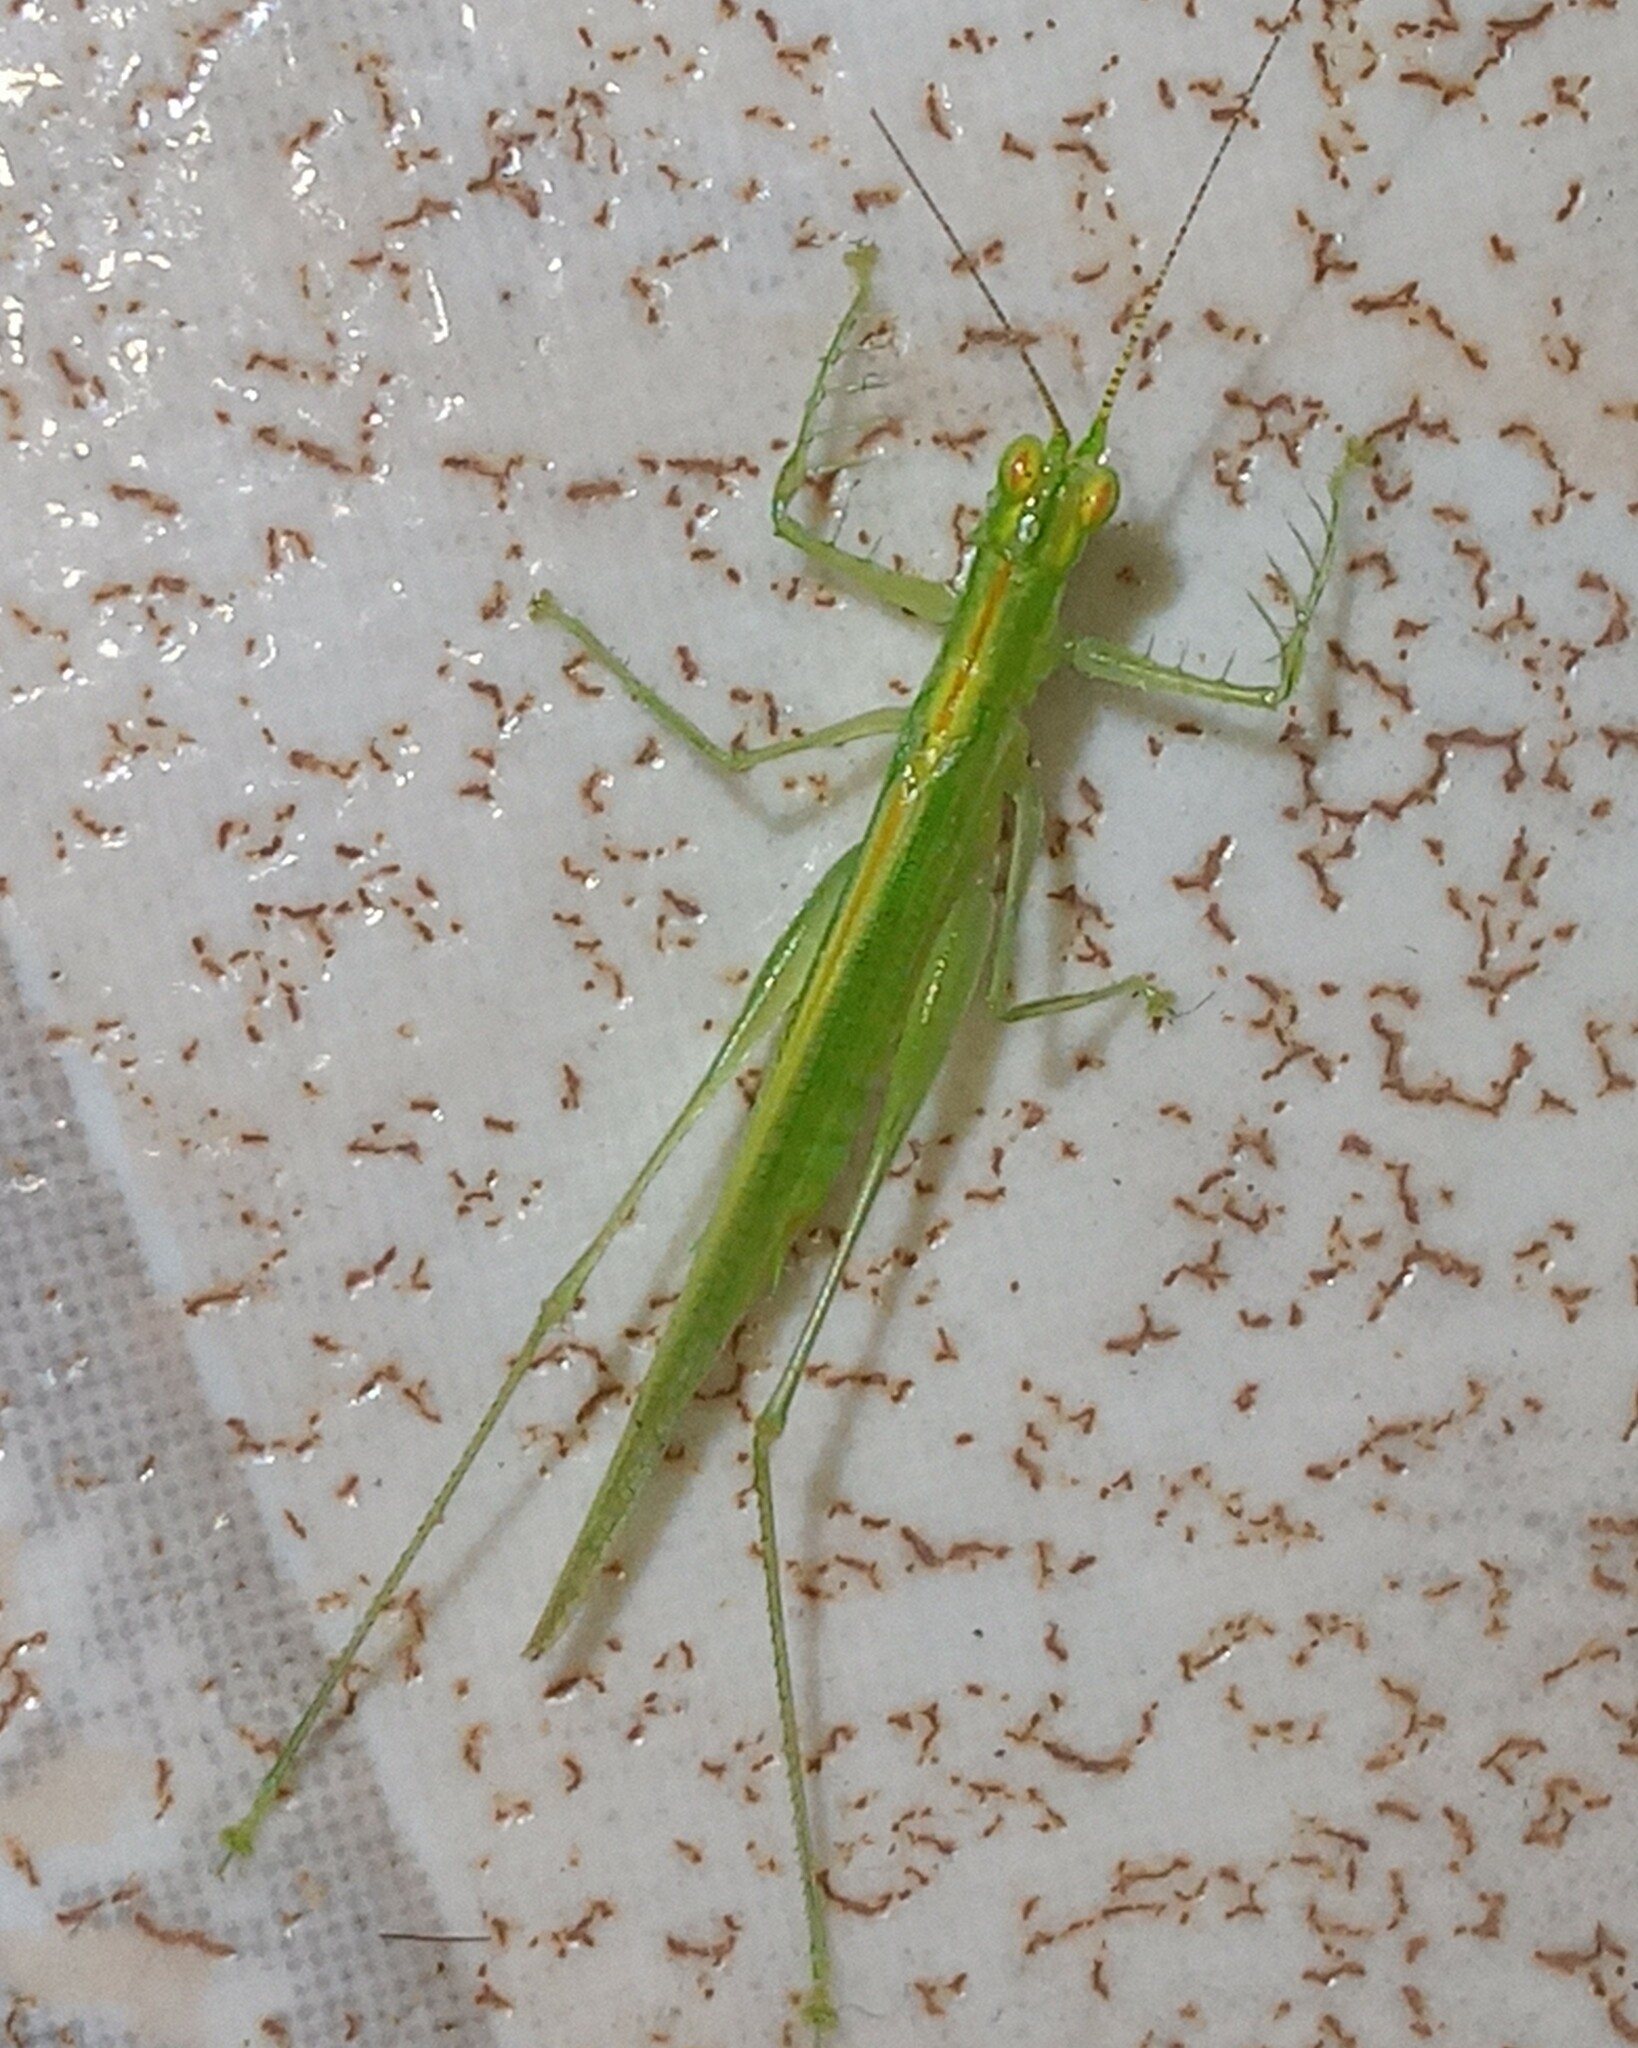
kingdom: Animalia
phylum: Arthropoda
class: Insecta
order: Orthoptera
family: Tettigoniidae
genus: Phlugis
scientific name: Phlugis ocraceovittata
